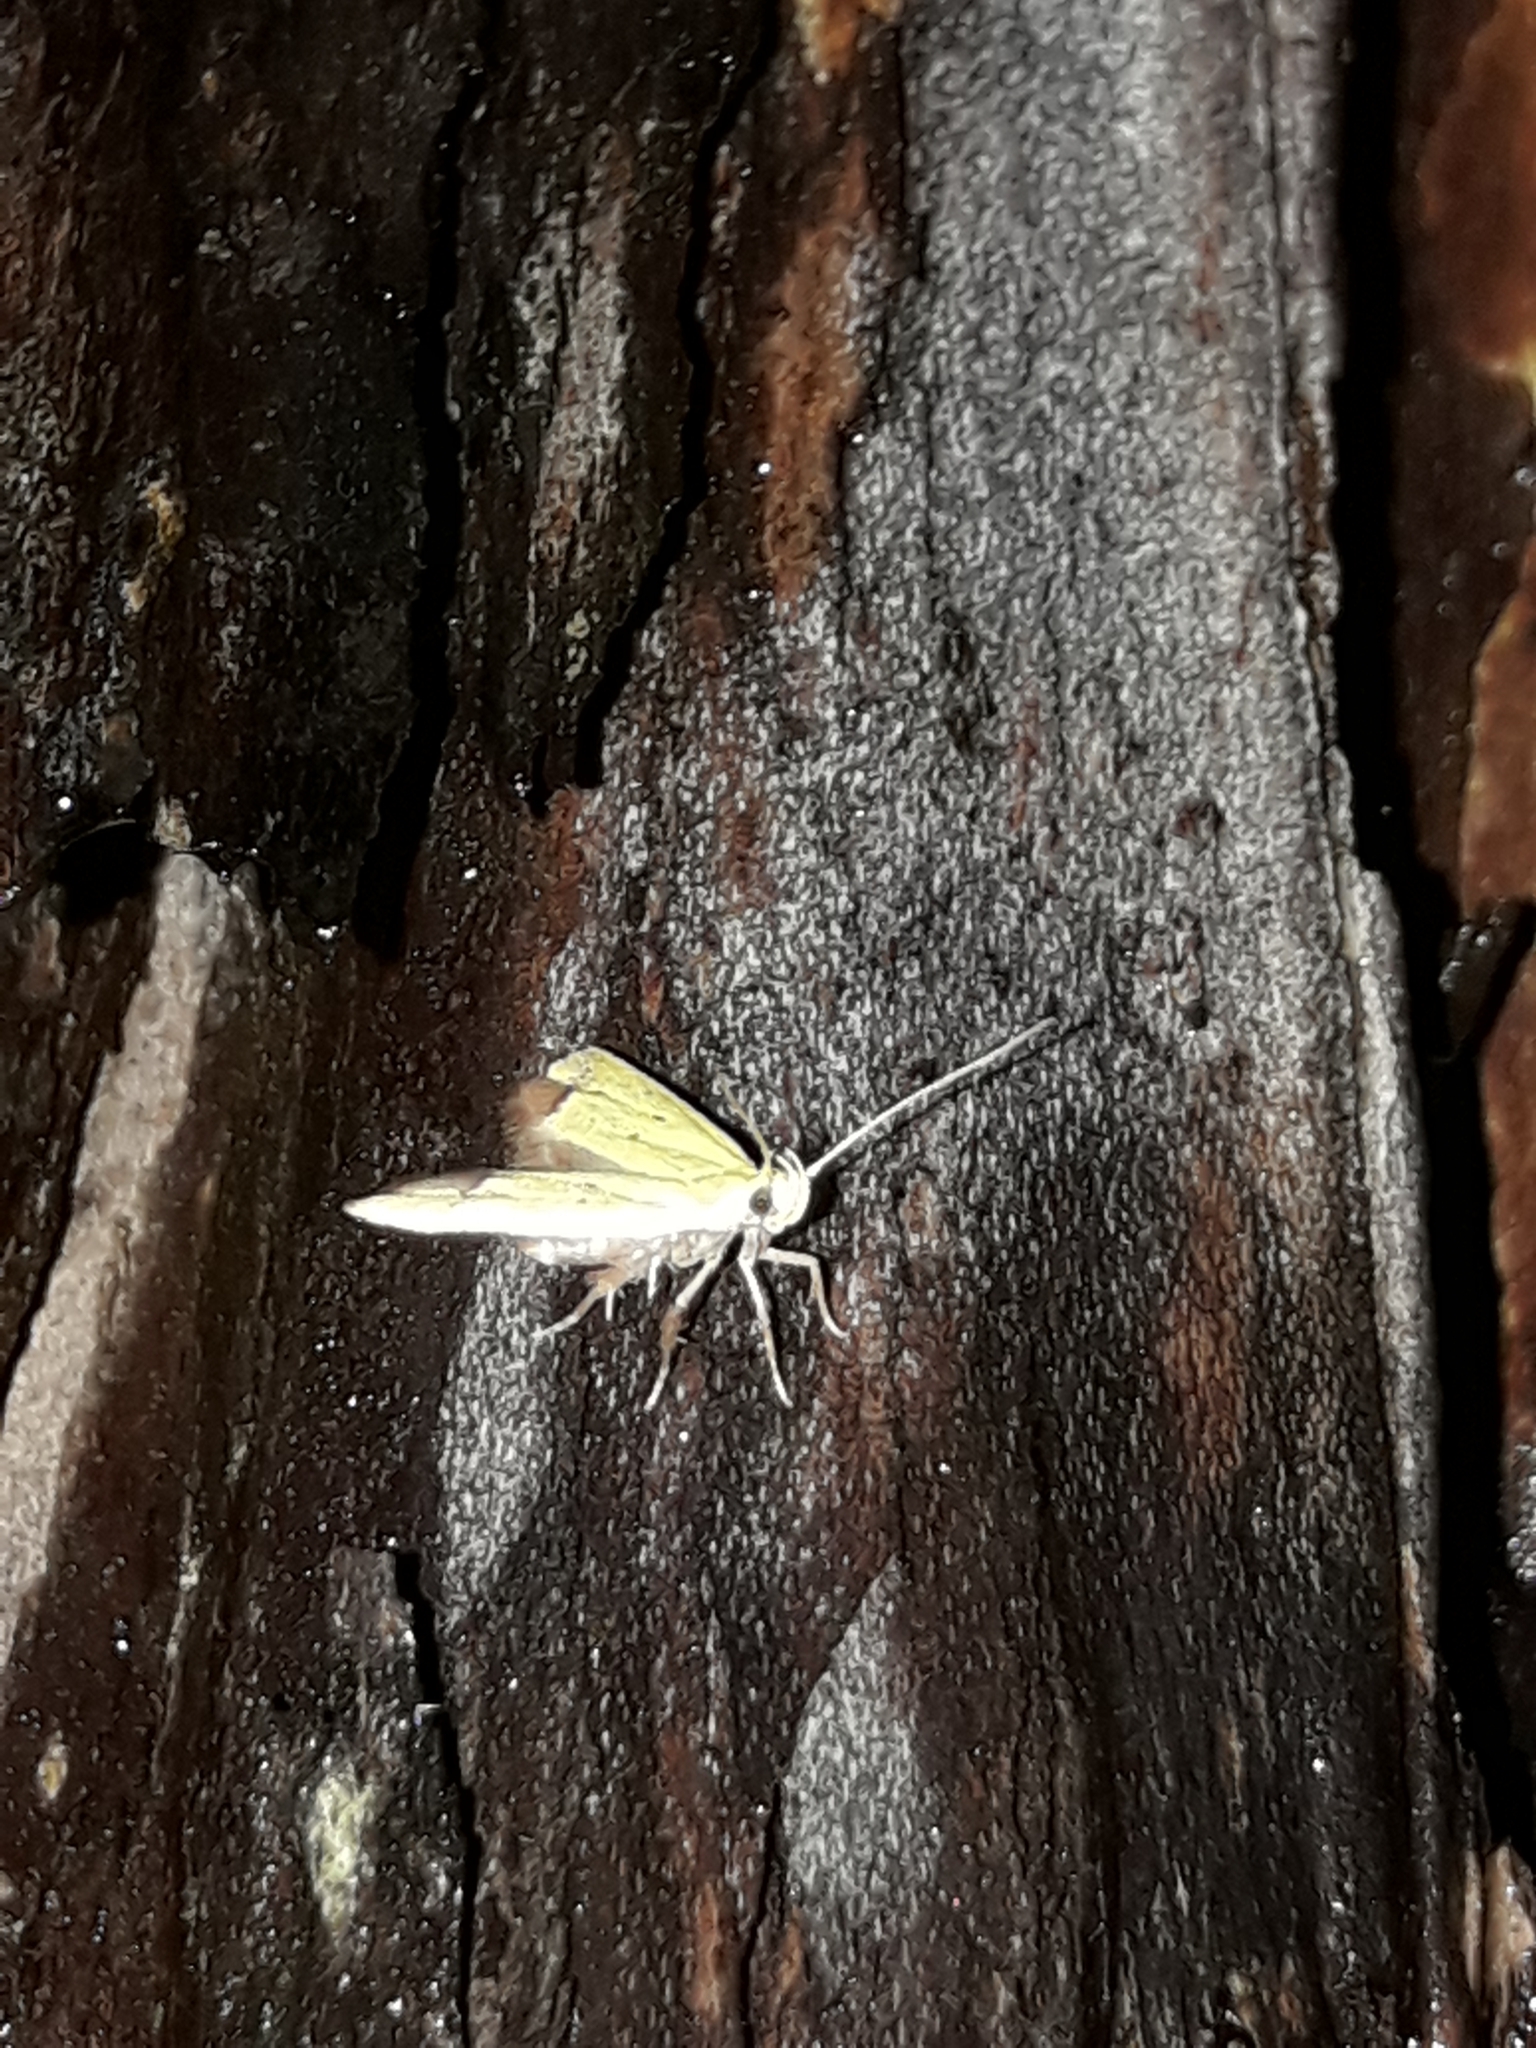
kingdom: Animalia
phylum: Arthropoda
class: Insecta
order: Lepidoptera
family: Oecophoridae
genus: Gymnobathra
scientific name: Gymnobathra flavidella
